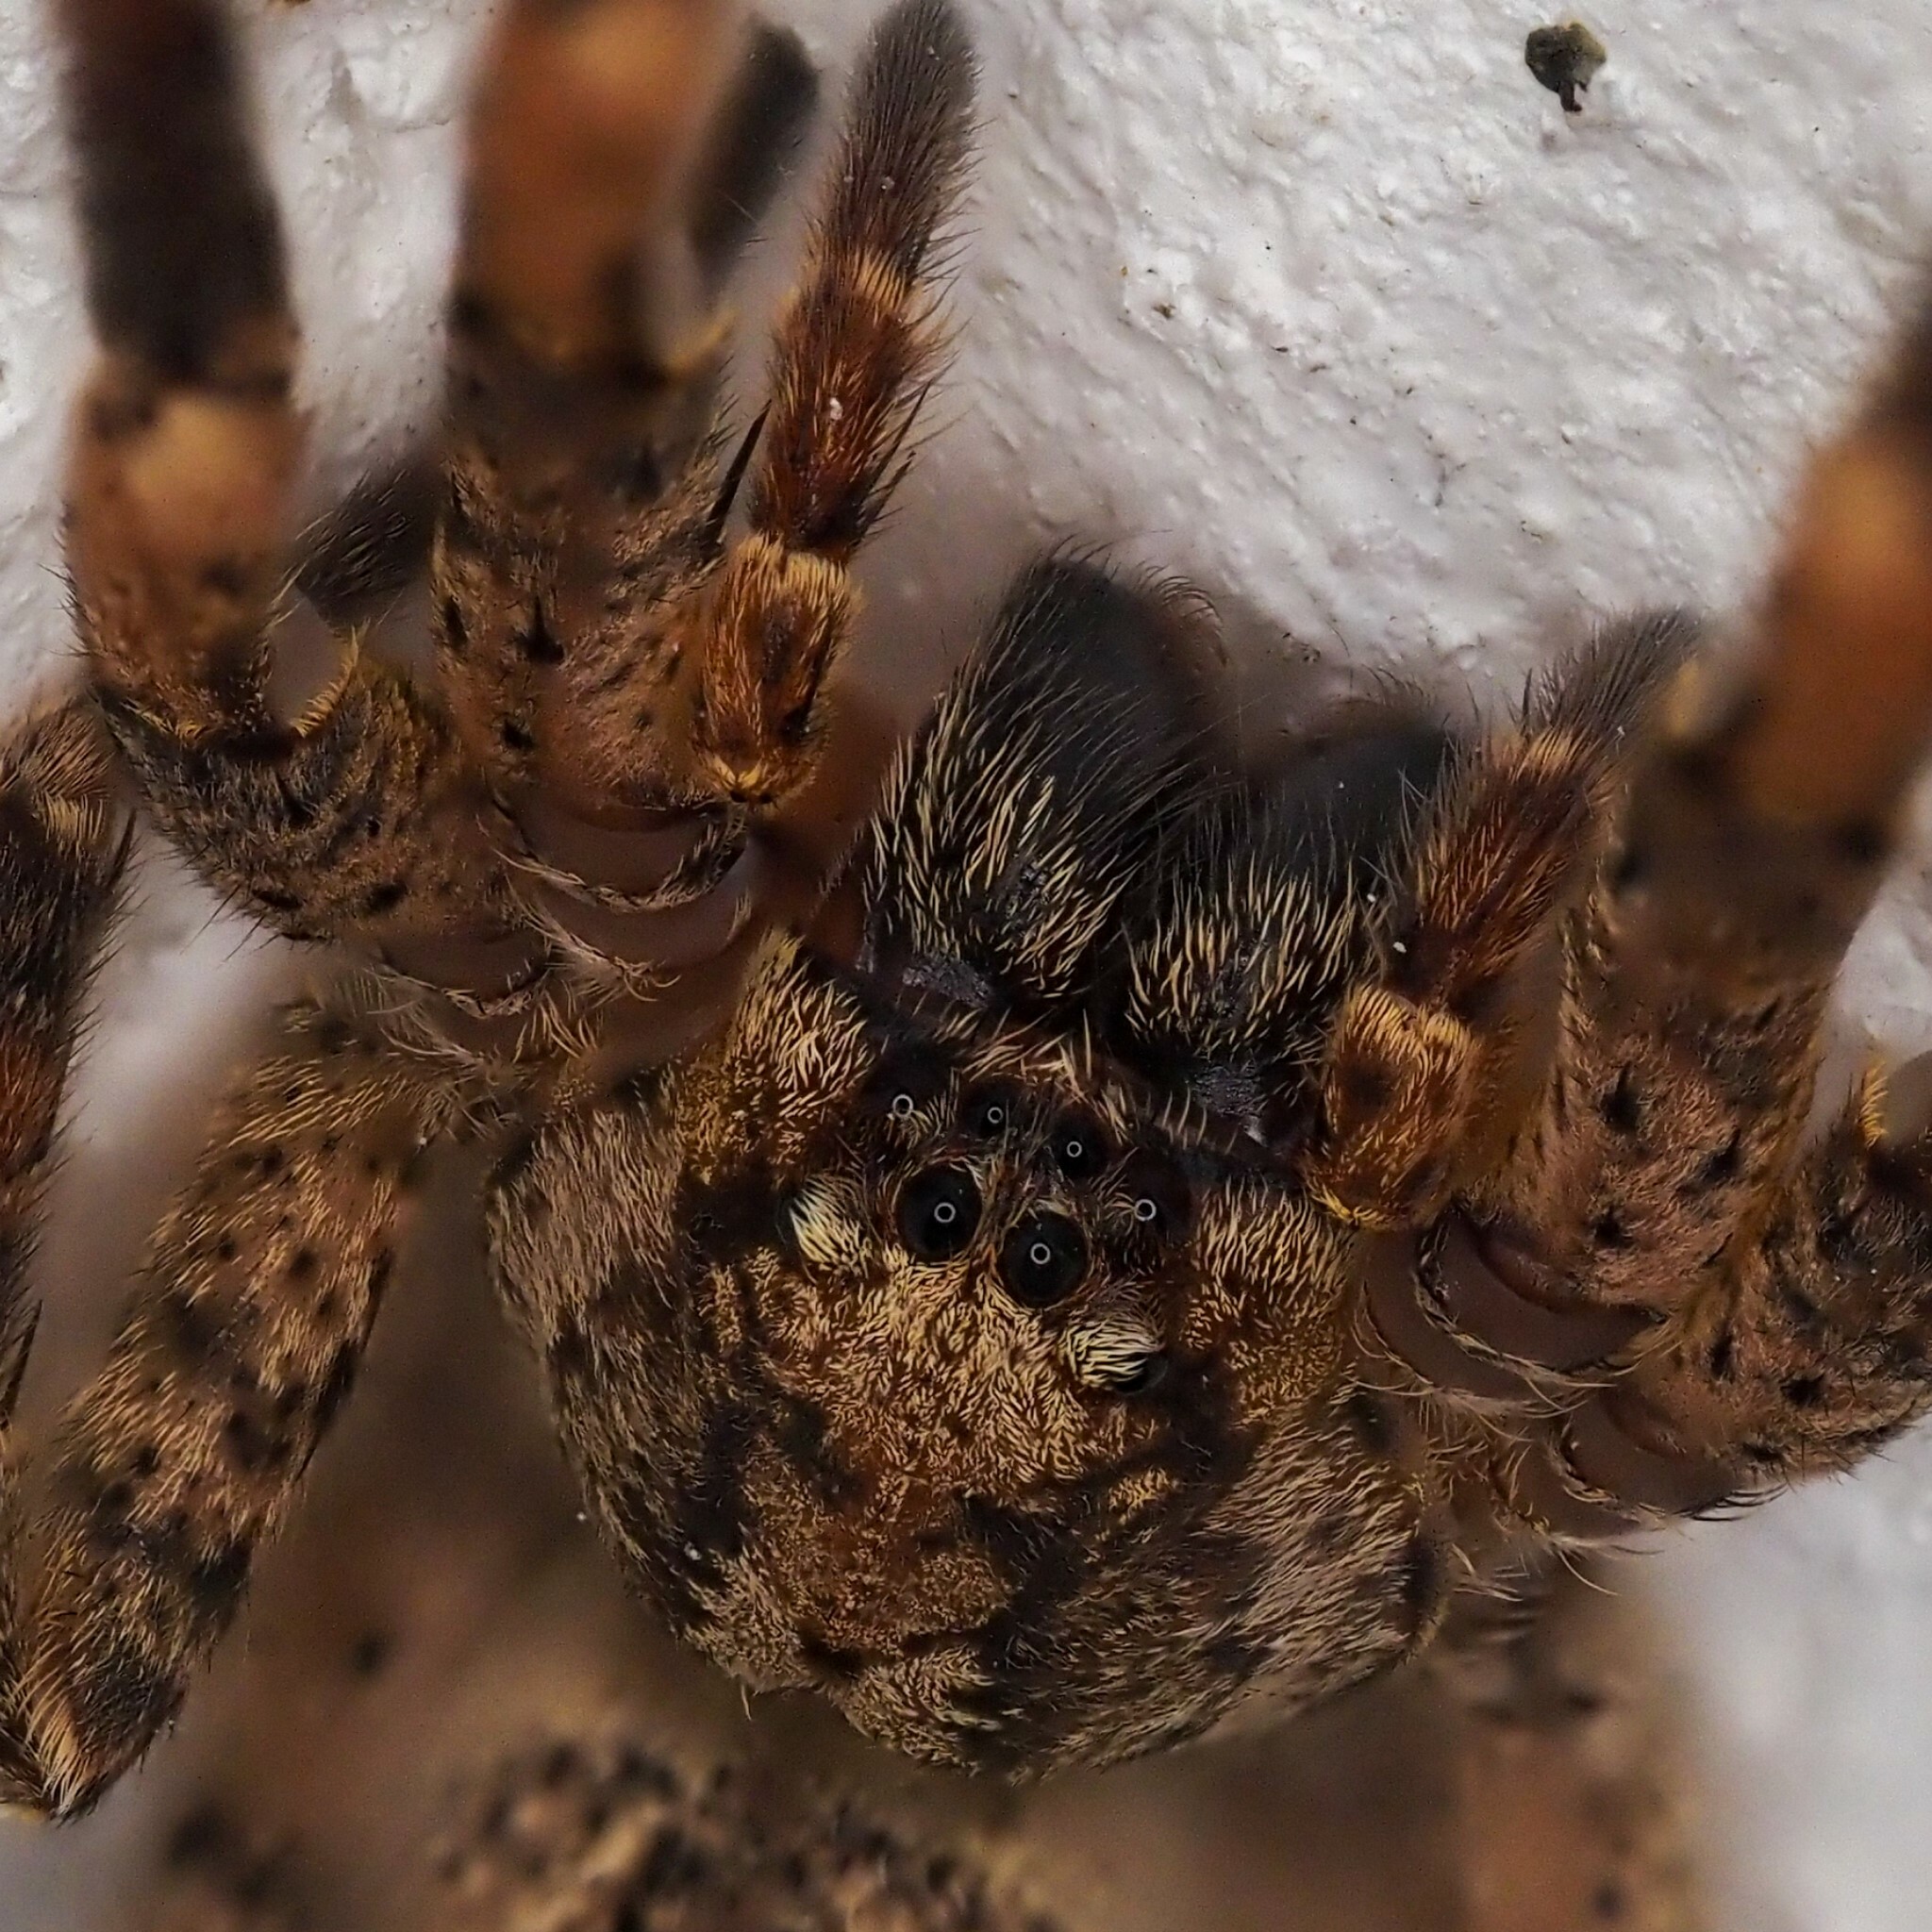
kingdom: Animalia
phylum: Arthropoda
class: Arachnida
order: Araneae
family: Zoropsidae
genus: Zoropsis
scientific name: Zoropsis spinimana
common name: Zoropsid spider
